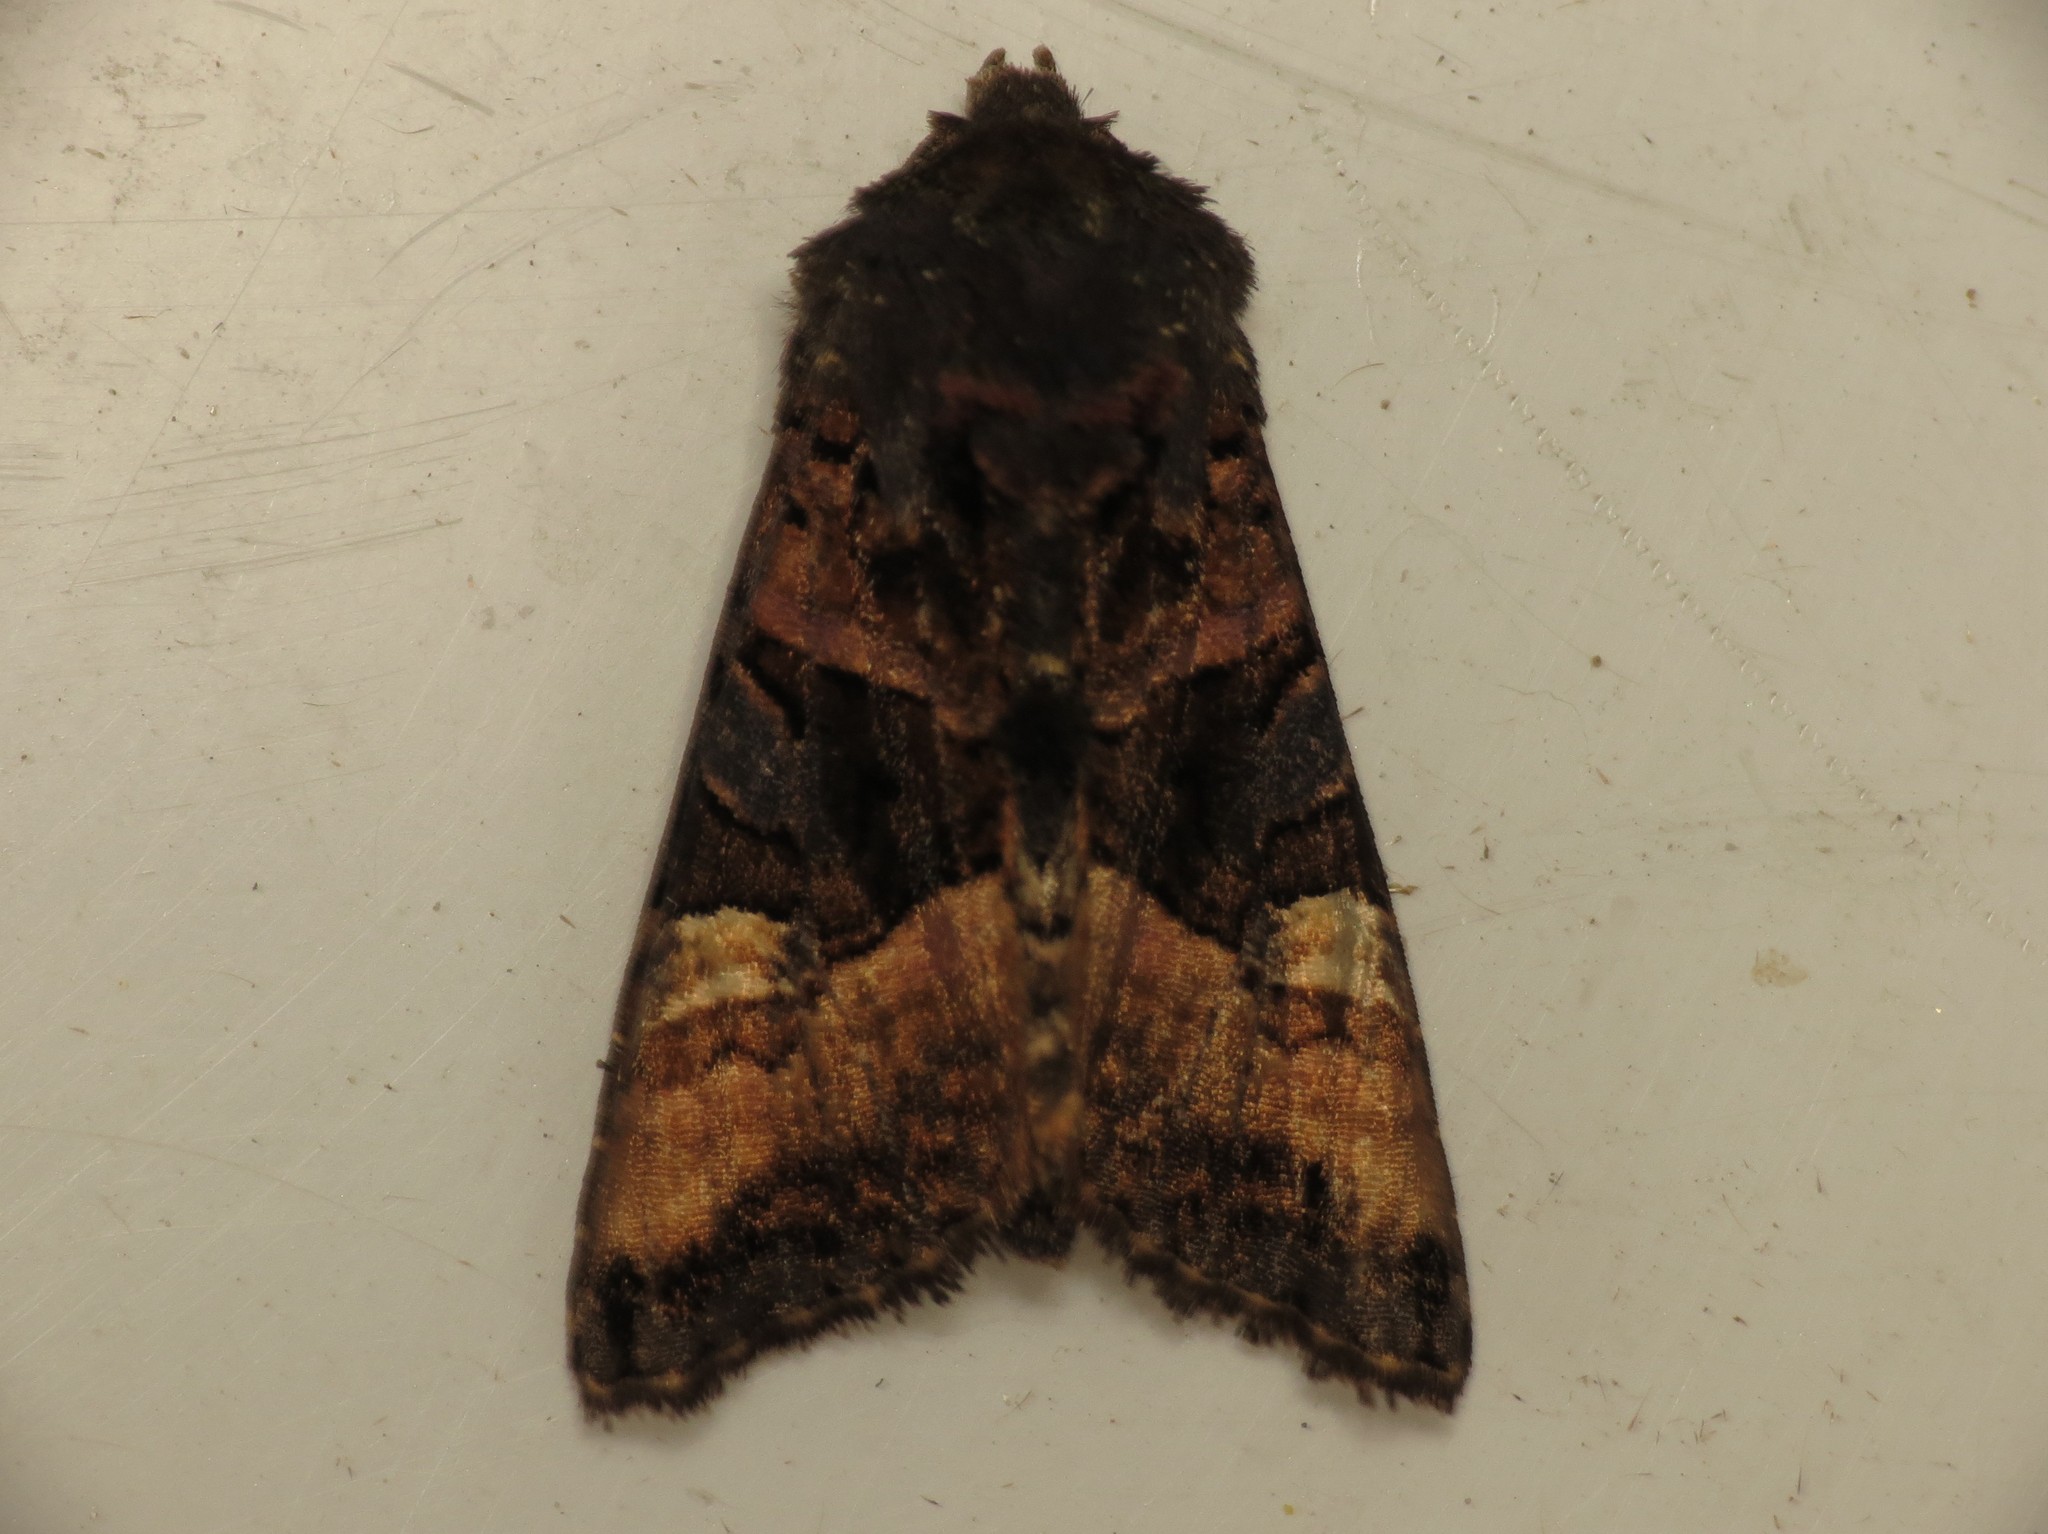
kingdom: Animalia
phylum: Arthropoda
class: Insecta
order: Lepidoptera
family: Noctuidae
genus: Euplexia
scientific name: Euplexia lucipara
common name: Small angle shades
